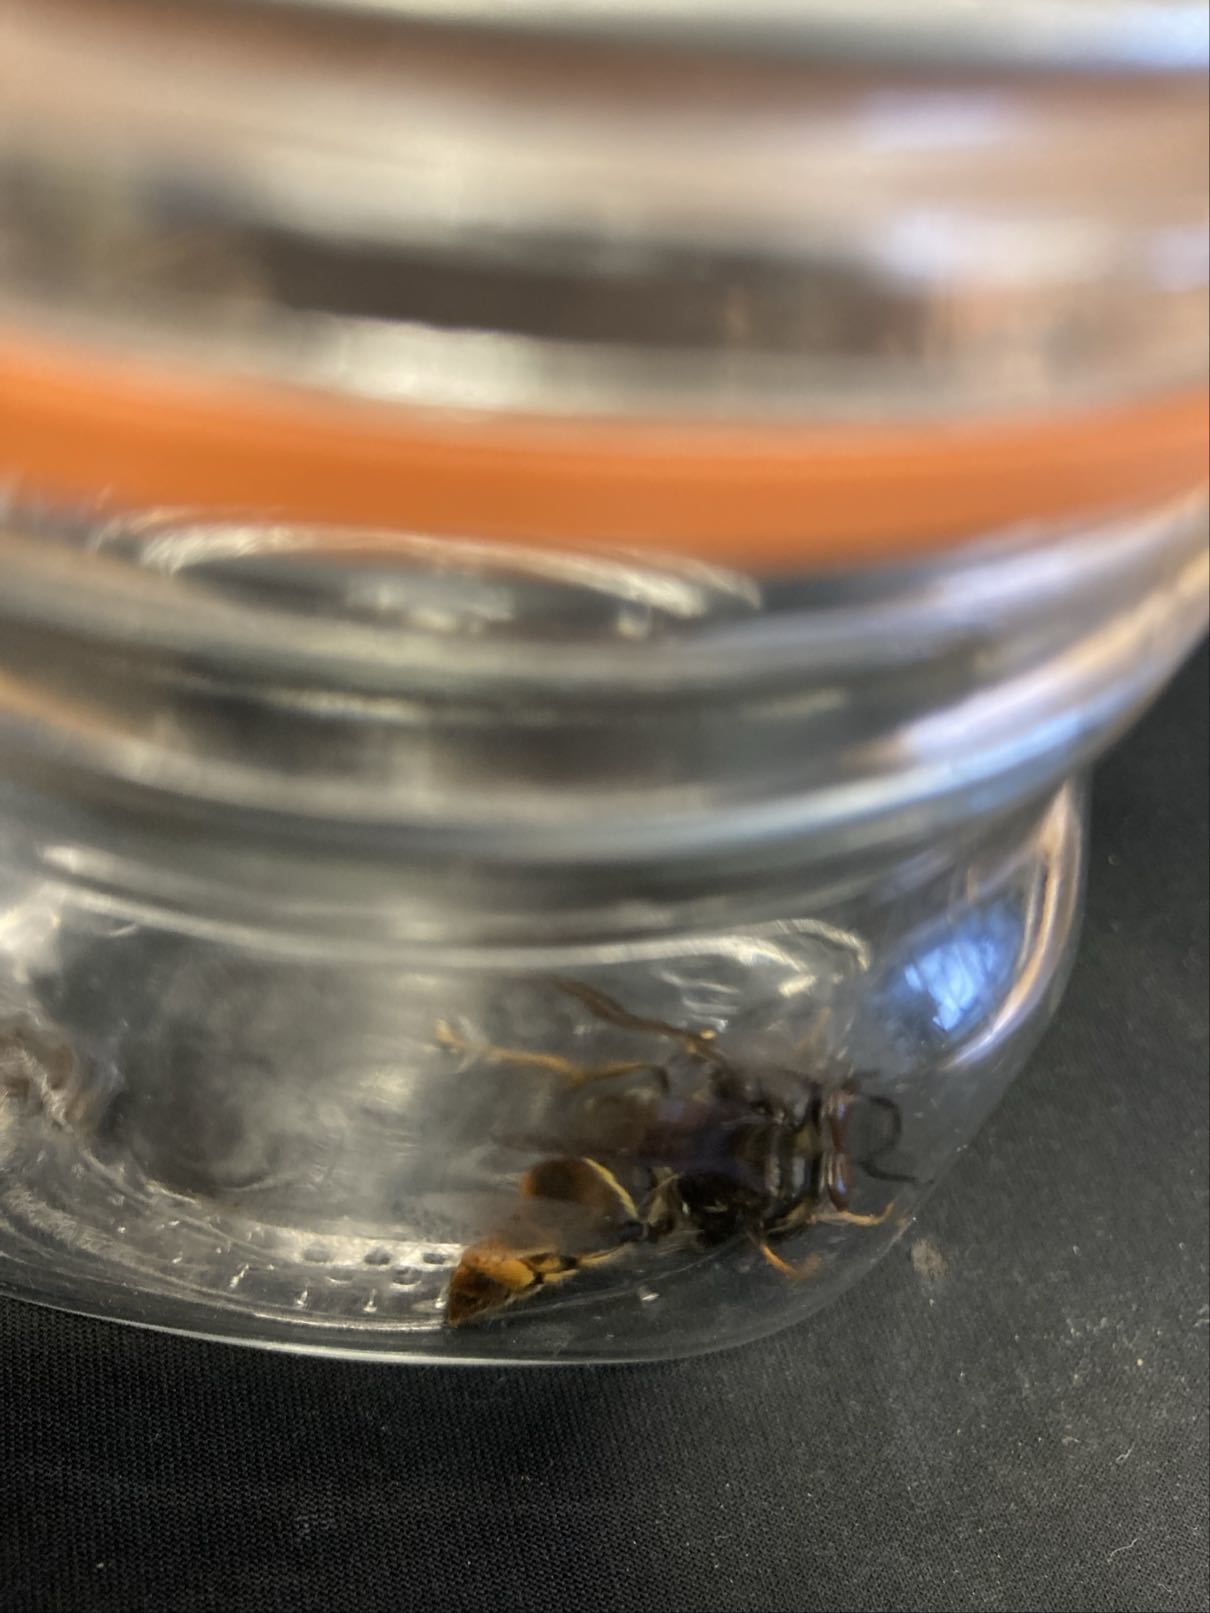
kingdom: Animalia
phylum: Arthropoda
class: Insecta
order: Hymenoptera
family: Vespidae
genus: Vespa
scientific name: Vespa velutina
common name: Asian hornet
